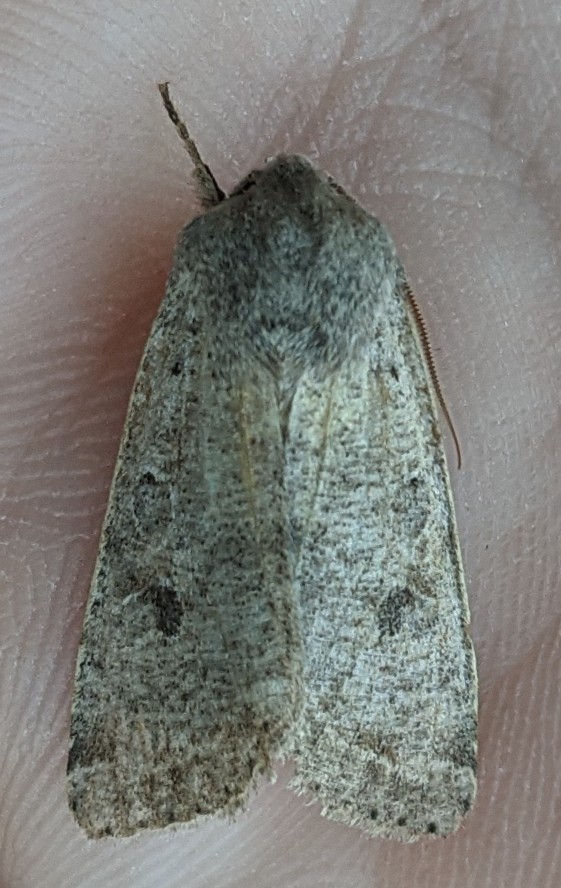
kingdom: Animalia
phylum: Arthropoda
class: Insecta
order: Lepidoptera
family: Noctuidae
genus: Orthosia
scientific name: Orthosia hibisci
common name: Green fruitworm
